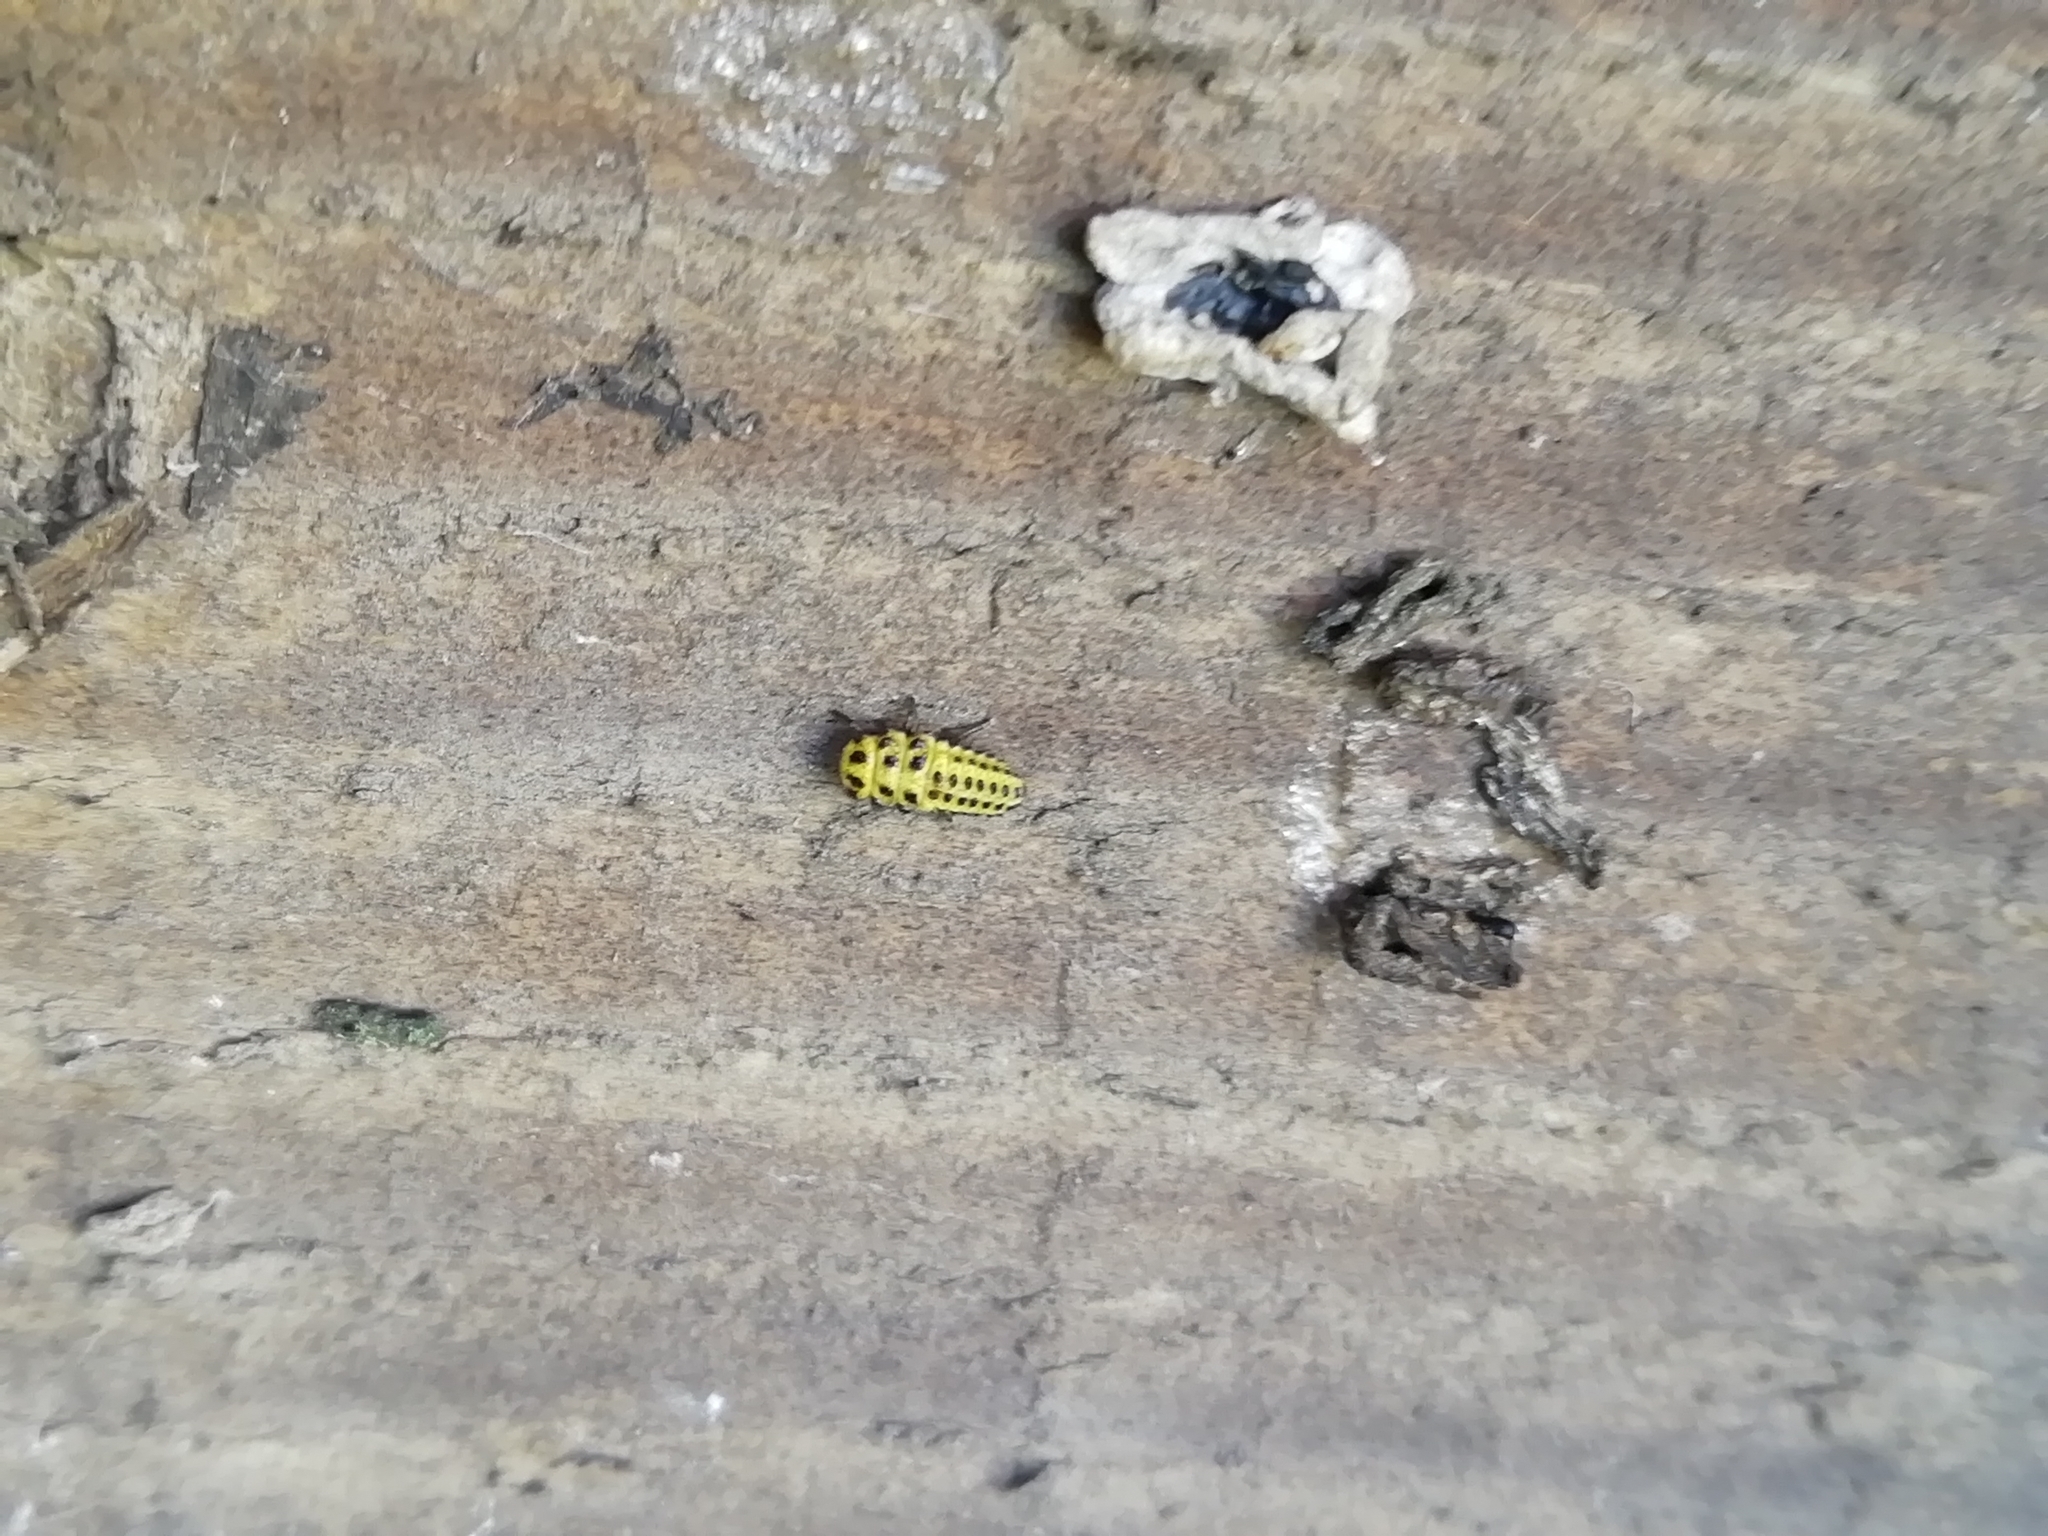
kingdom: Animalia
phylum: Arthropoda
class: Insecta
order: Coleoptera
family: Coccinellidae
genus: Psyllobora
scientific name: Psyllobora vigintiduopunctata
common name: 22-spot ladybird
